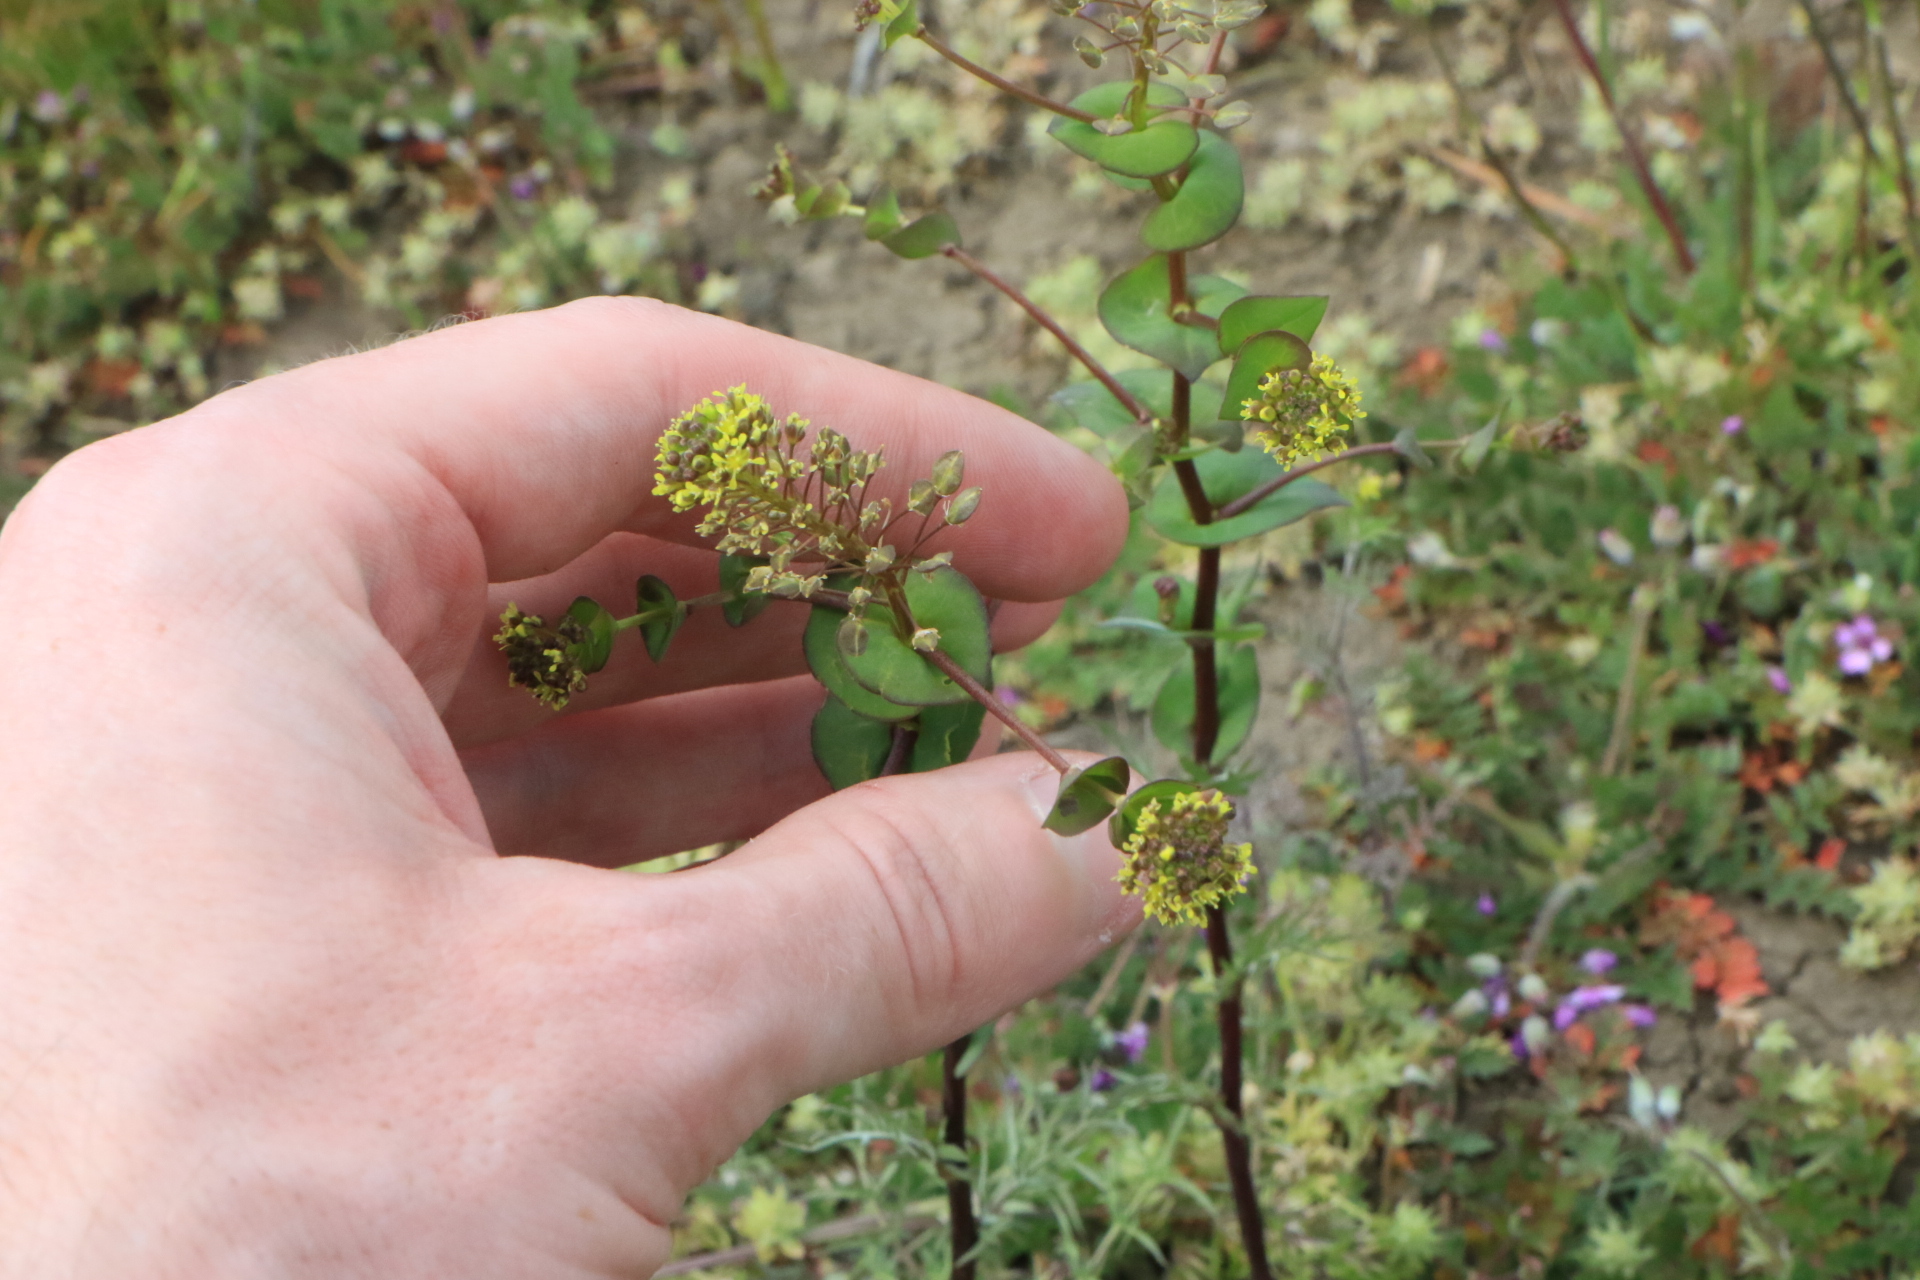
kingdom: Plantae
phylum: Tracheophyta
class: Magnoliopsida
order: Brassicales
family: Brassicaceae
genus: Lepidium
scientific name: Lepidium perfoliatum
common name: Perfoliate pepperwort
